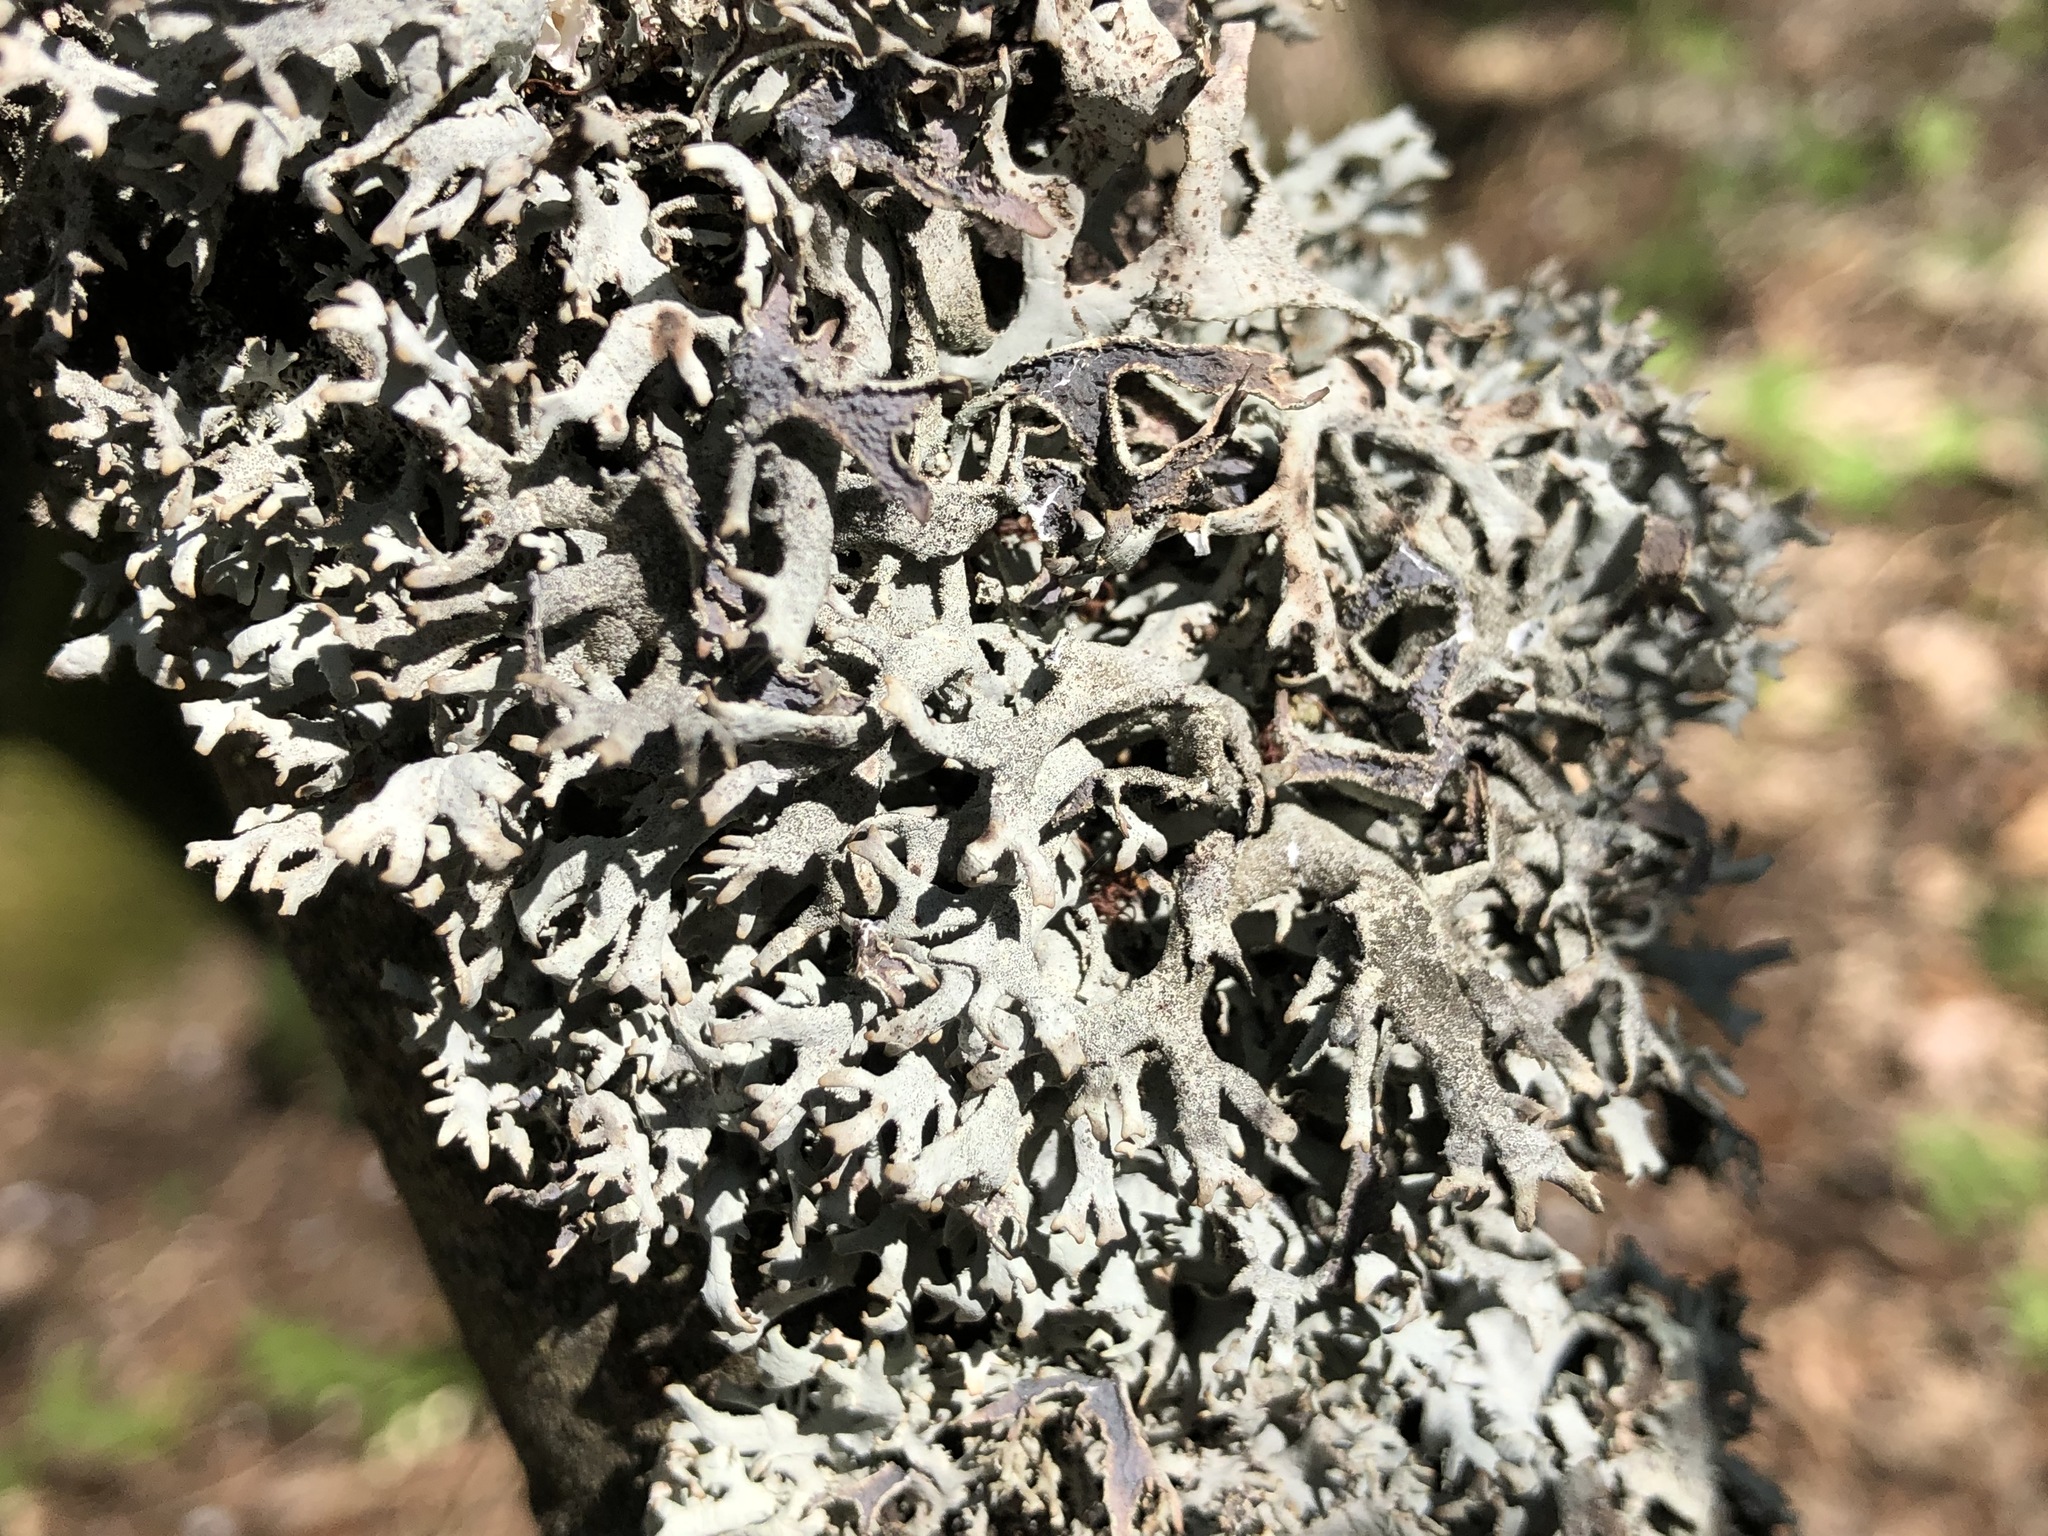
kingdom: Fungi
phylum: Ascomycota
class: Lecanoromycetes
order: Lecanorales
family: Parmeliaceae
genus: Pseudevernia
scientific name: Pseudevernia furfuracea
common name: Tree moss
